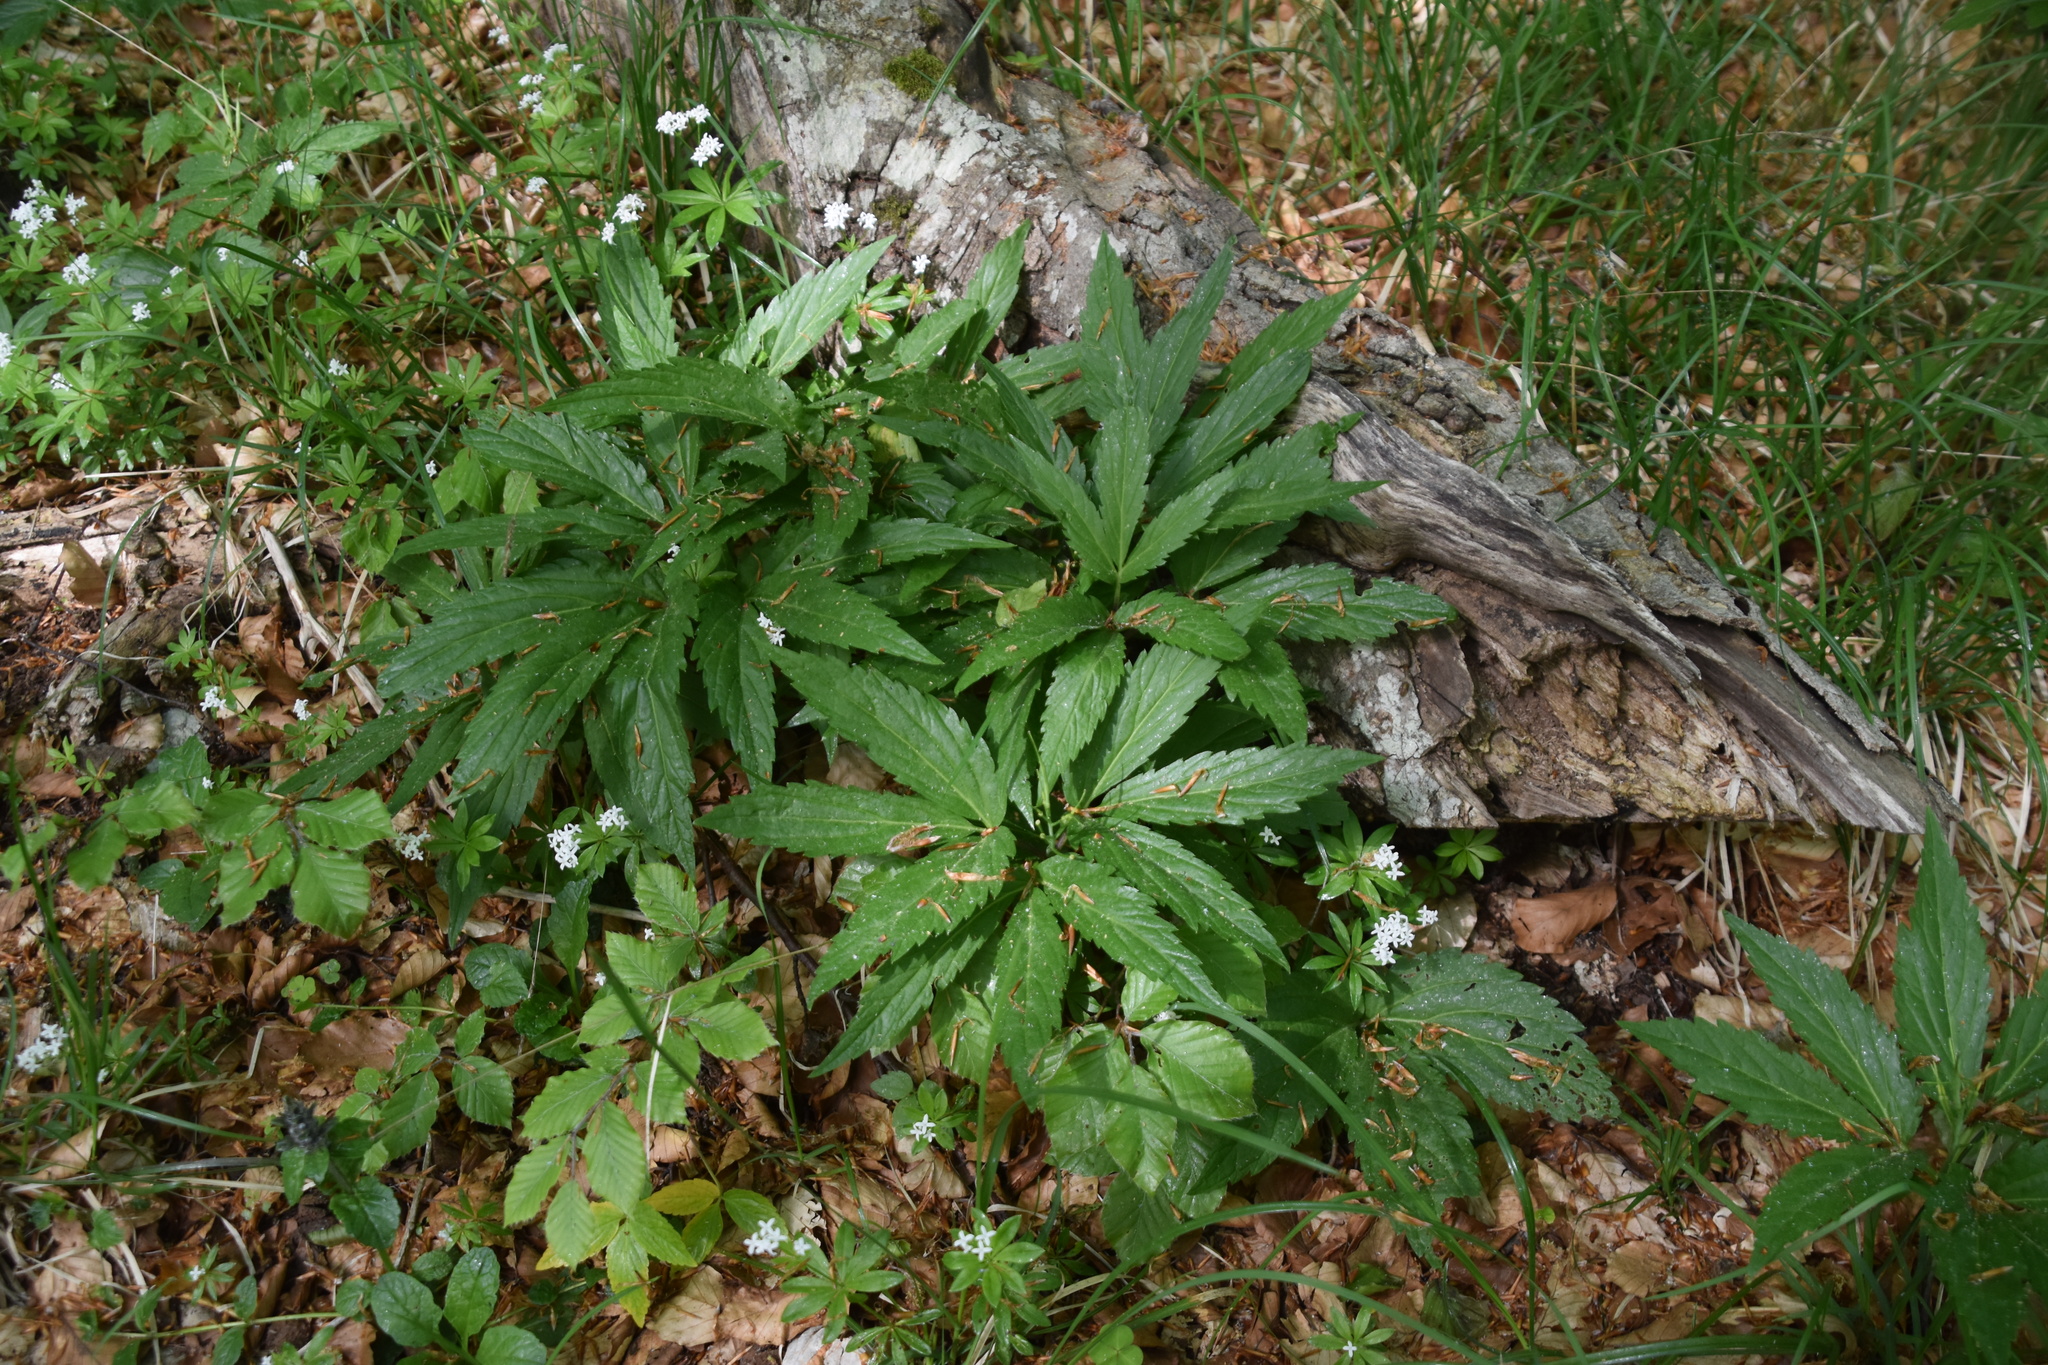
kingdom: Plantae
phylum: Tracheophyta
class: Magnoliopsida
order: Brassicales
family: Brassicaceae
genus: Cardamine
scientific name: Cardamine enneaphyllos
